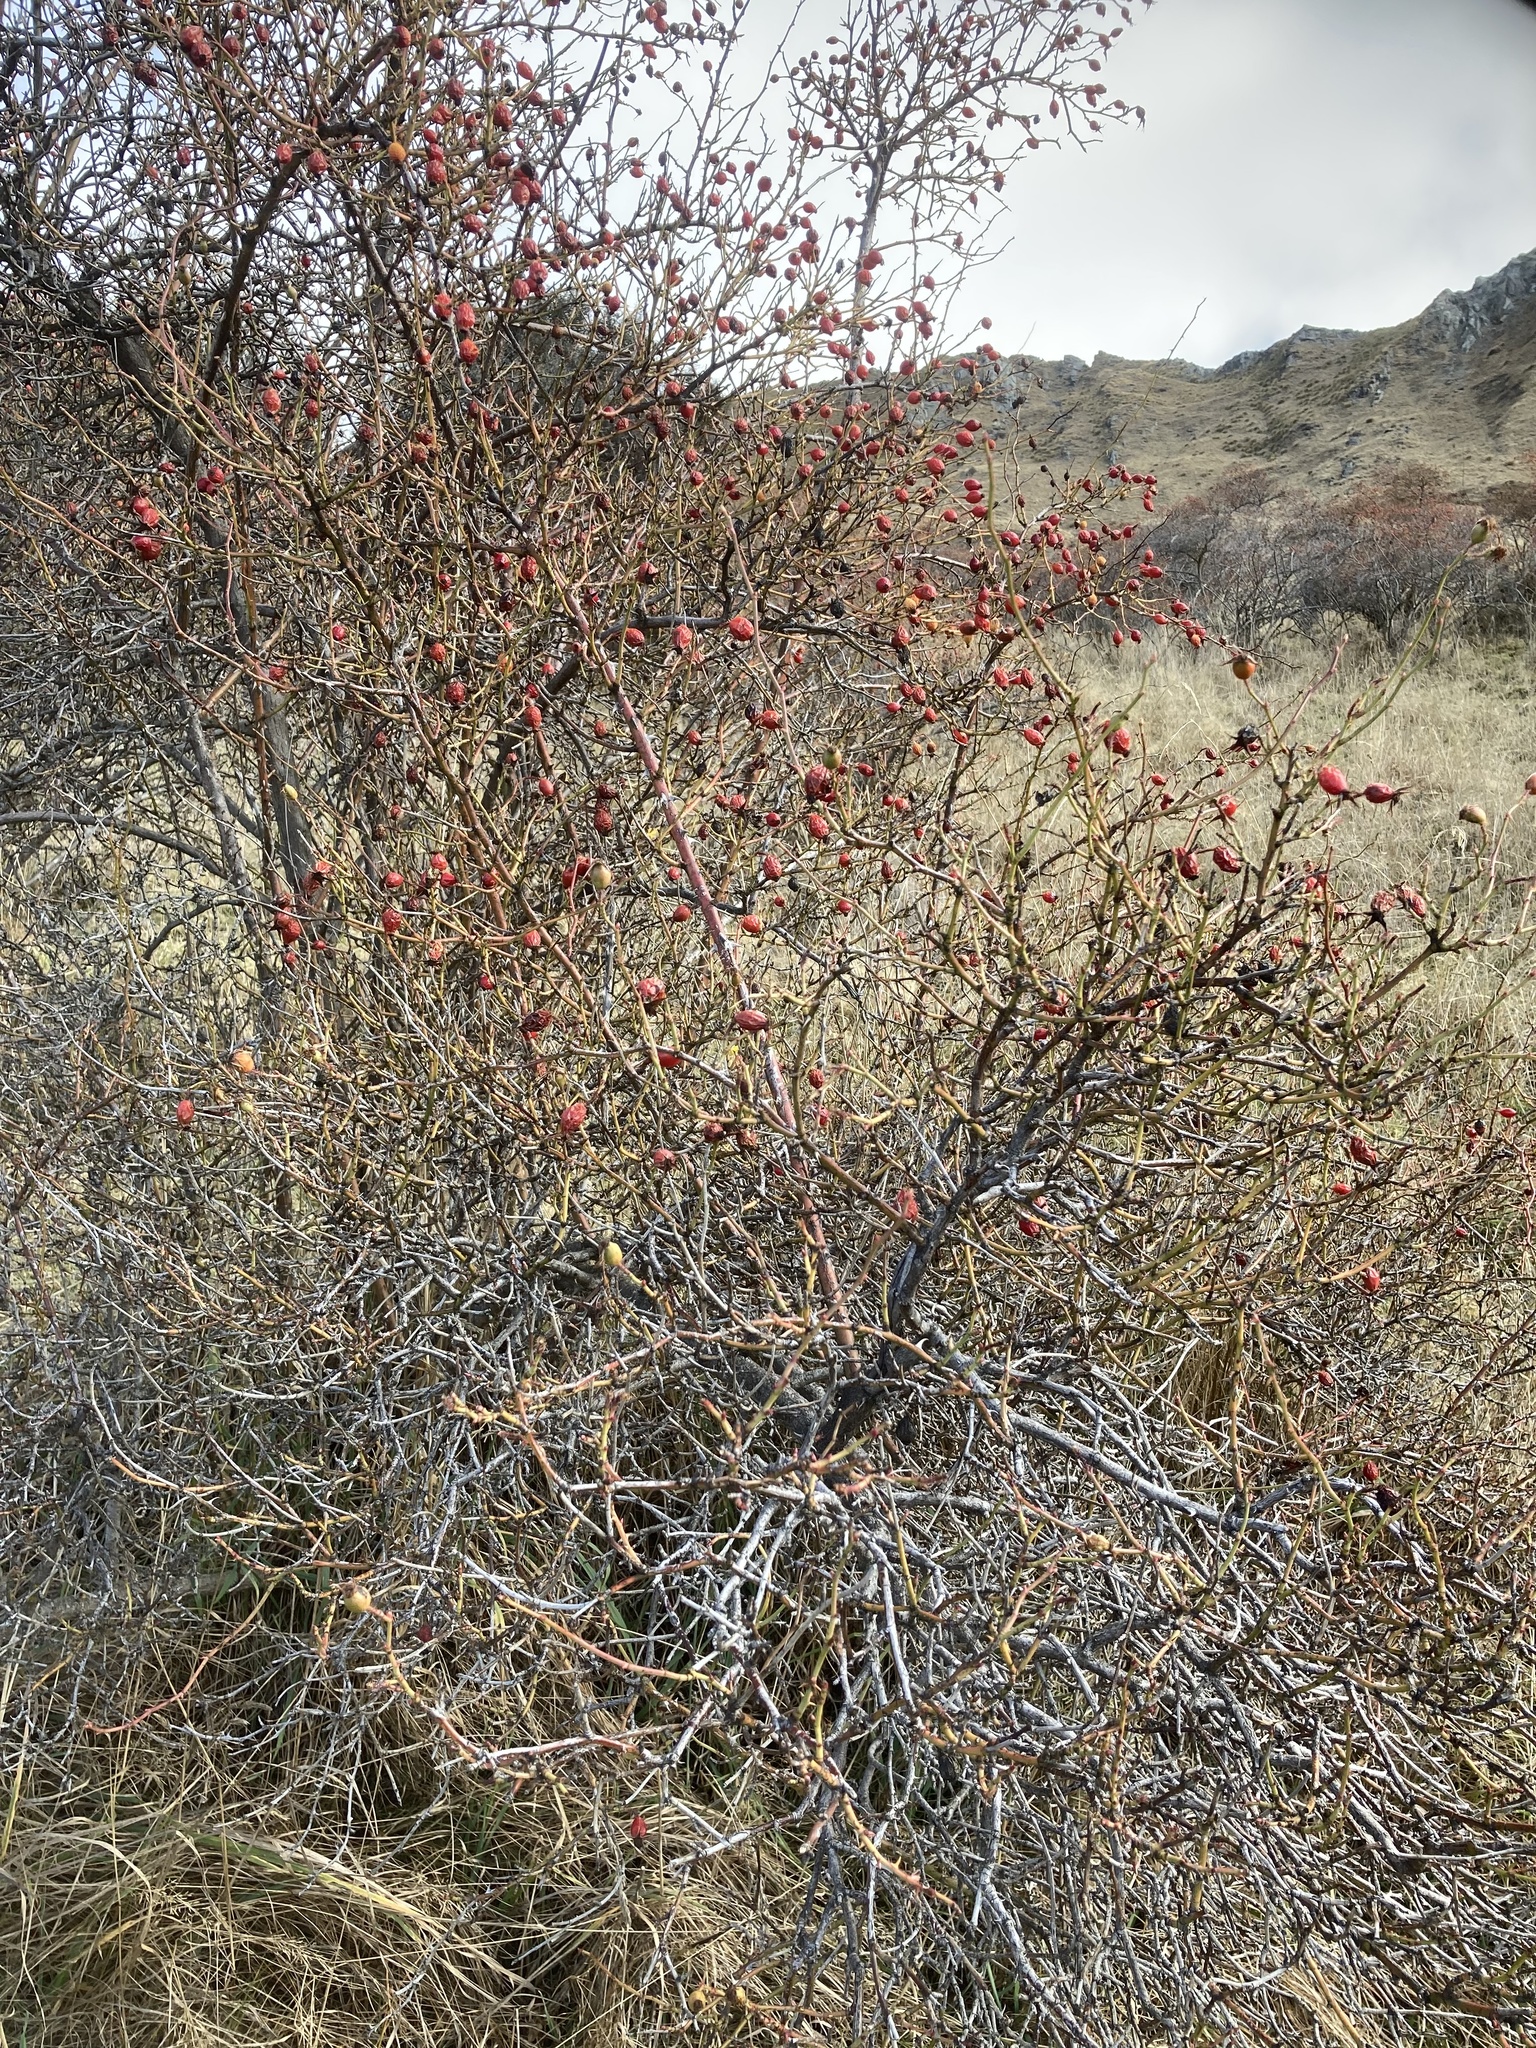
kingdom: Plantae
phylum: Tracheophyta
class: Magnoliopsida
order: Rosales
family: Rosaceae
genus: Rosa
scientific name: Rosa rubiginosa
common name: Sweet-briar
